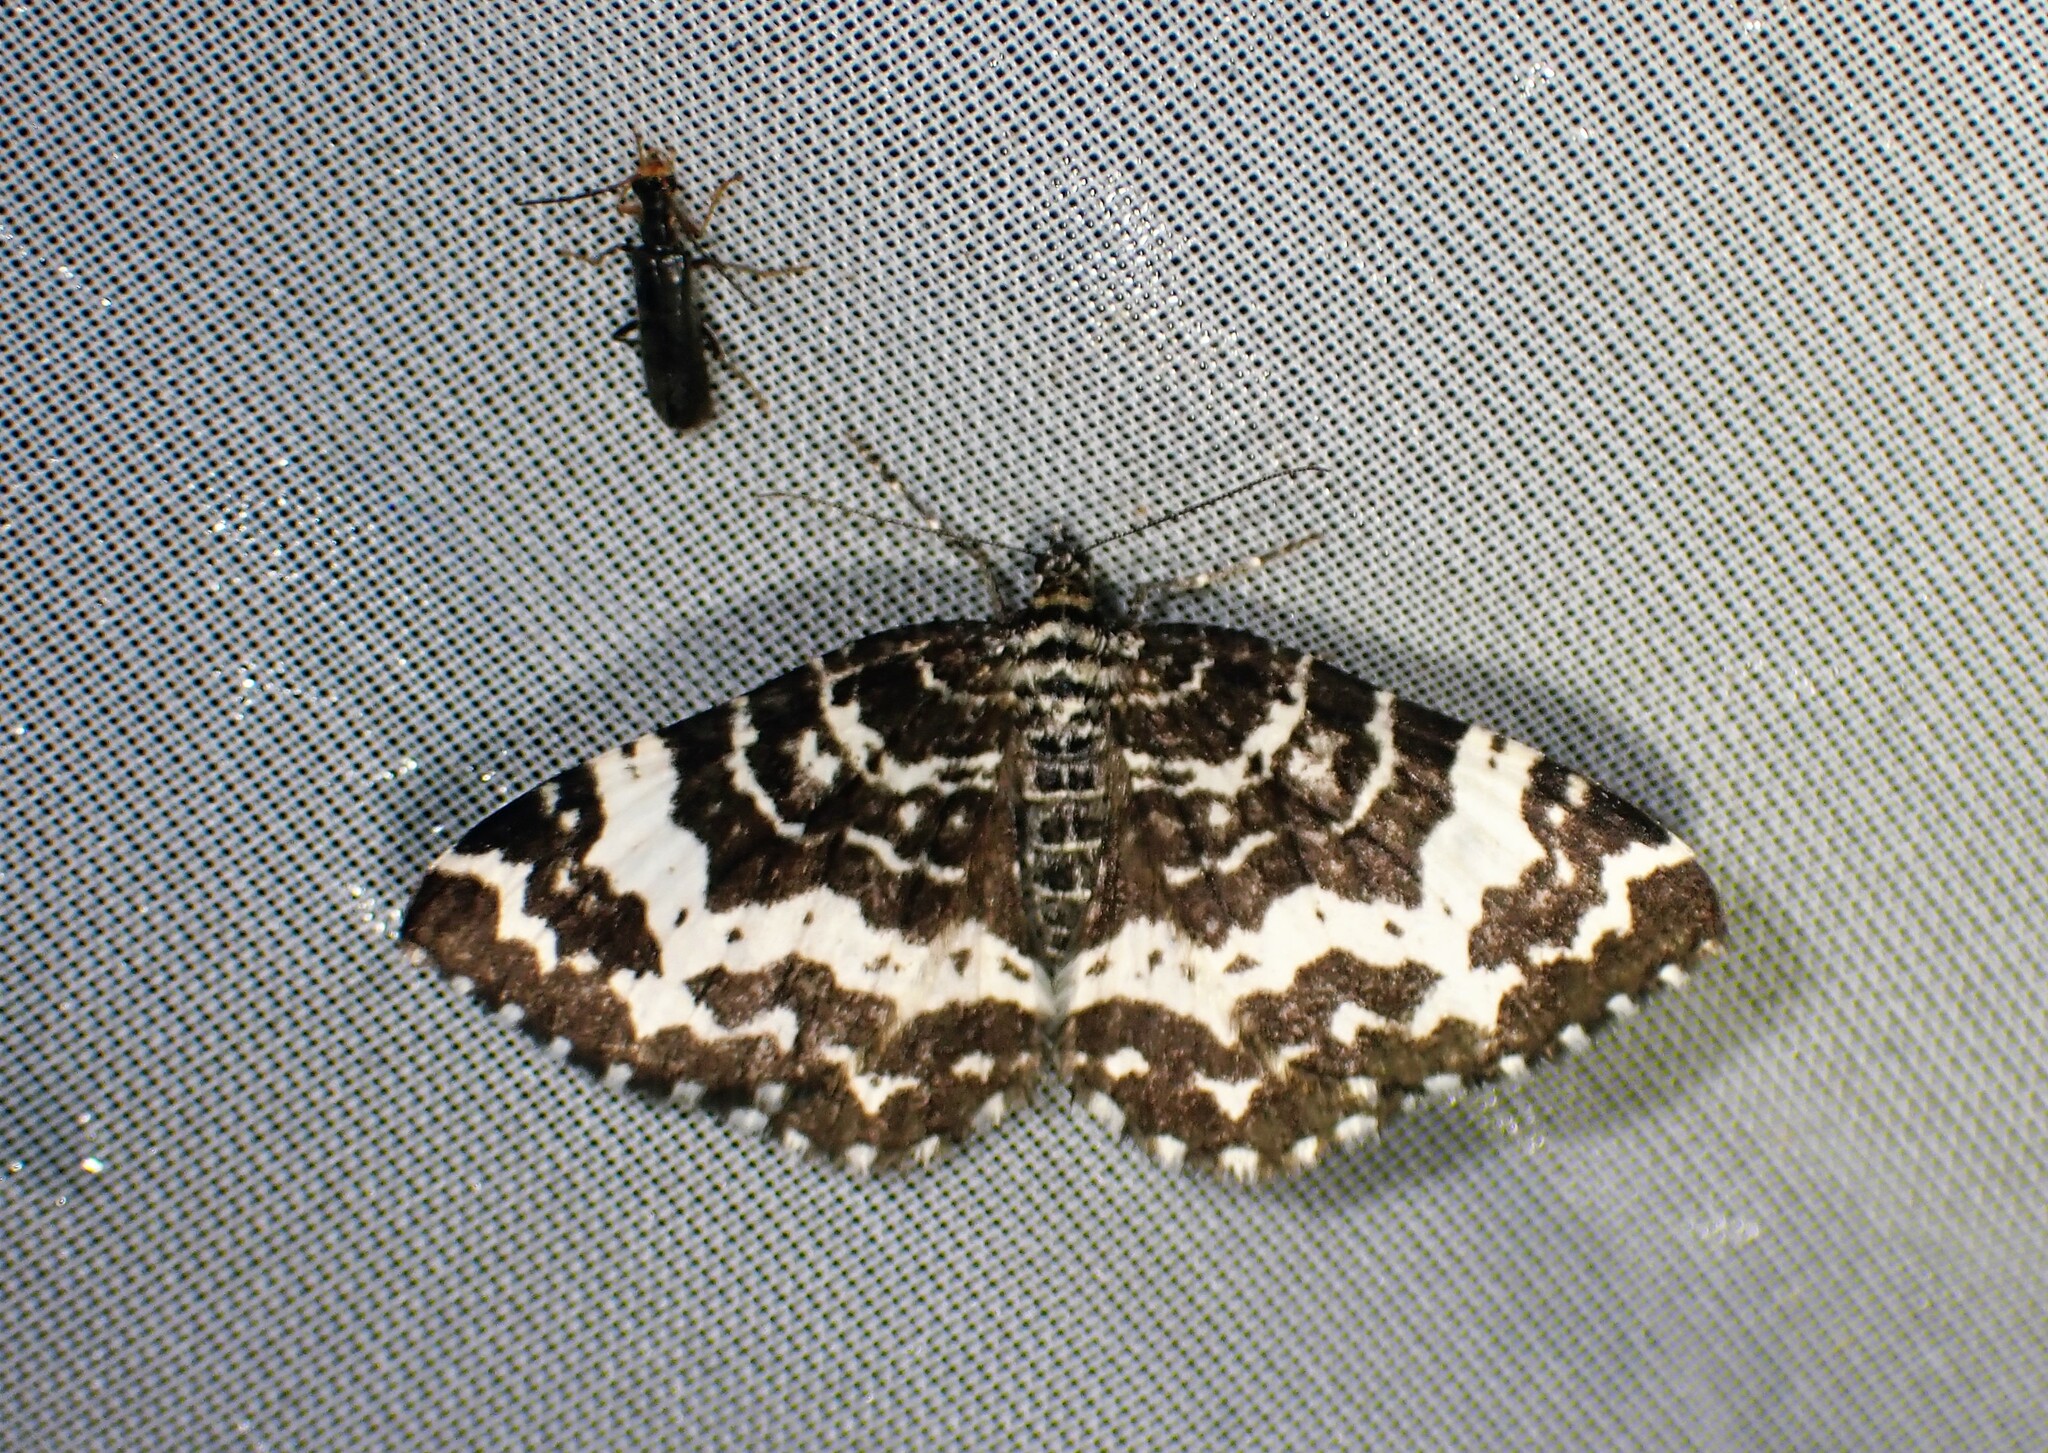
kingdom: Animalia
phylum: Arthropoda
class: Insecta
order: Lepidoptera
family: Geometridae
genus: Rheumaptera
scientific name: Rheumaptera
